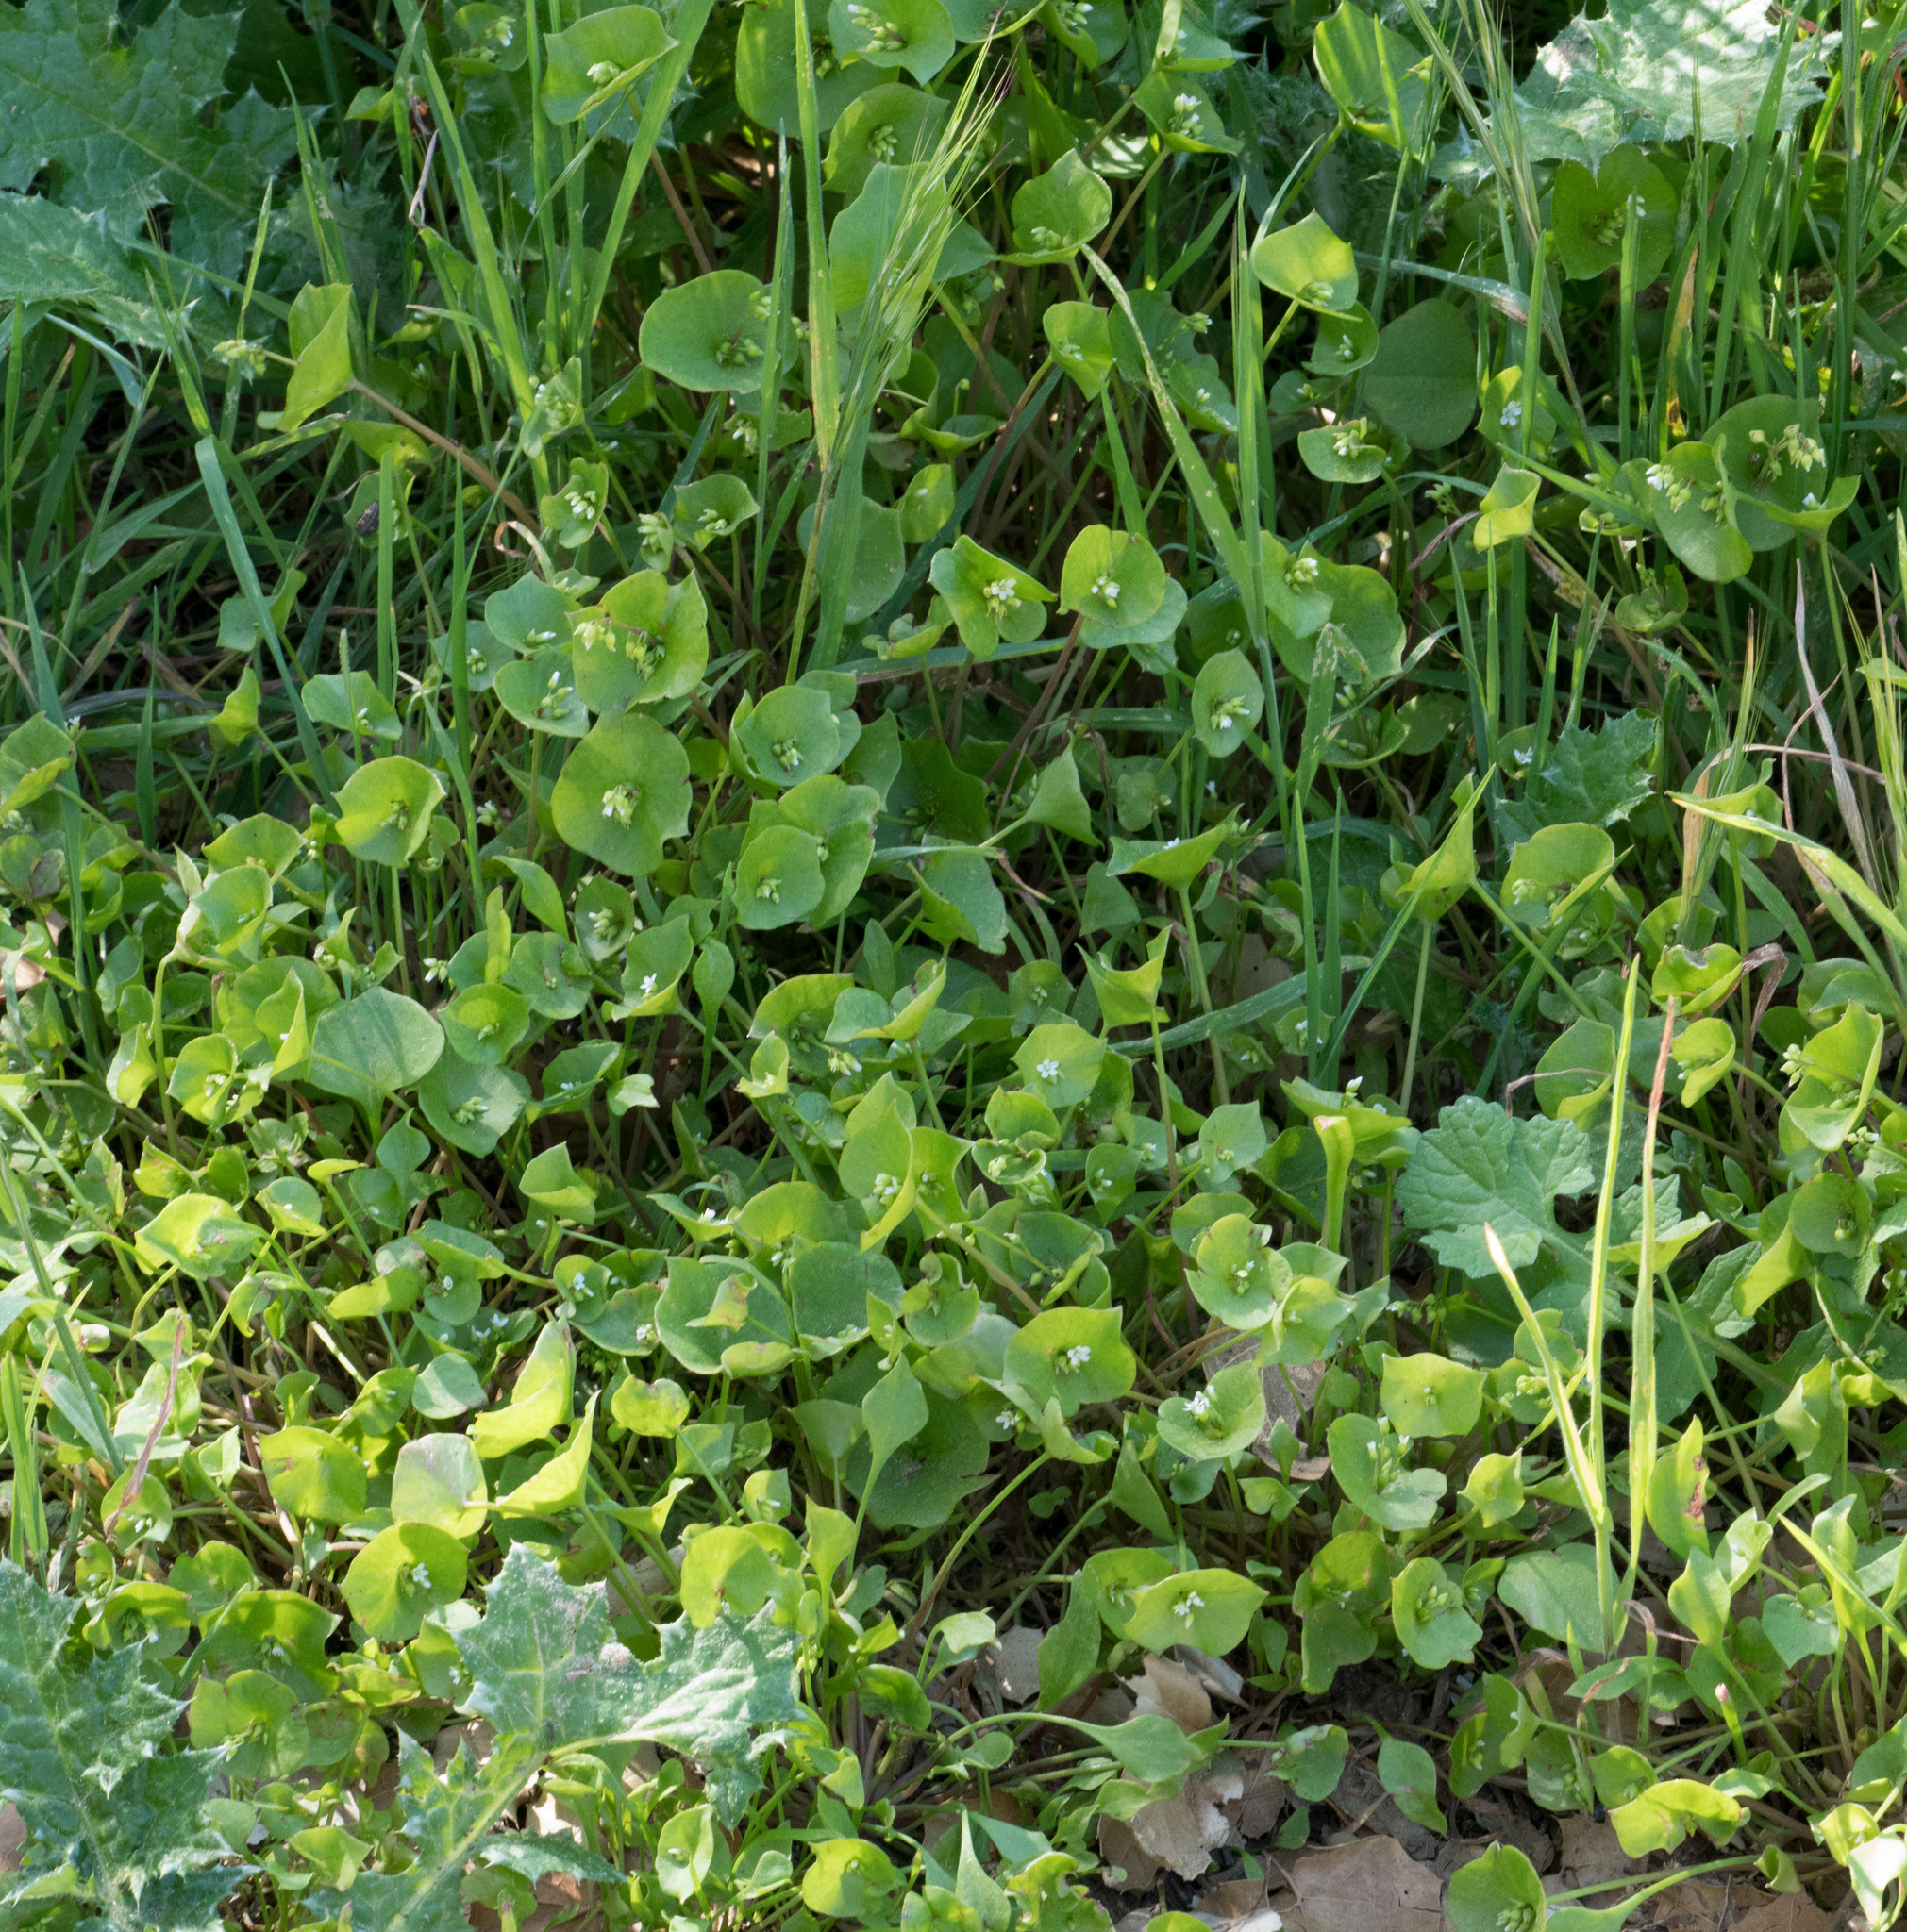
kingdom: Plantae
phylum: Tracheophyta
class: Magnoliopsida
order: Caryophyllales
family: Montiaceae
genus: Claytonia
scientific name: Claytonia perfoliata
